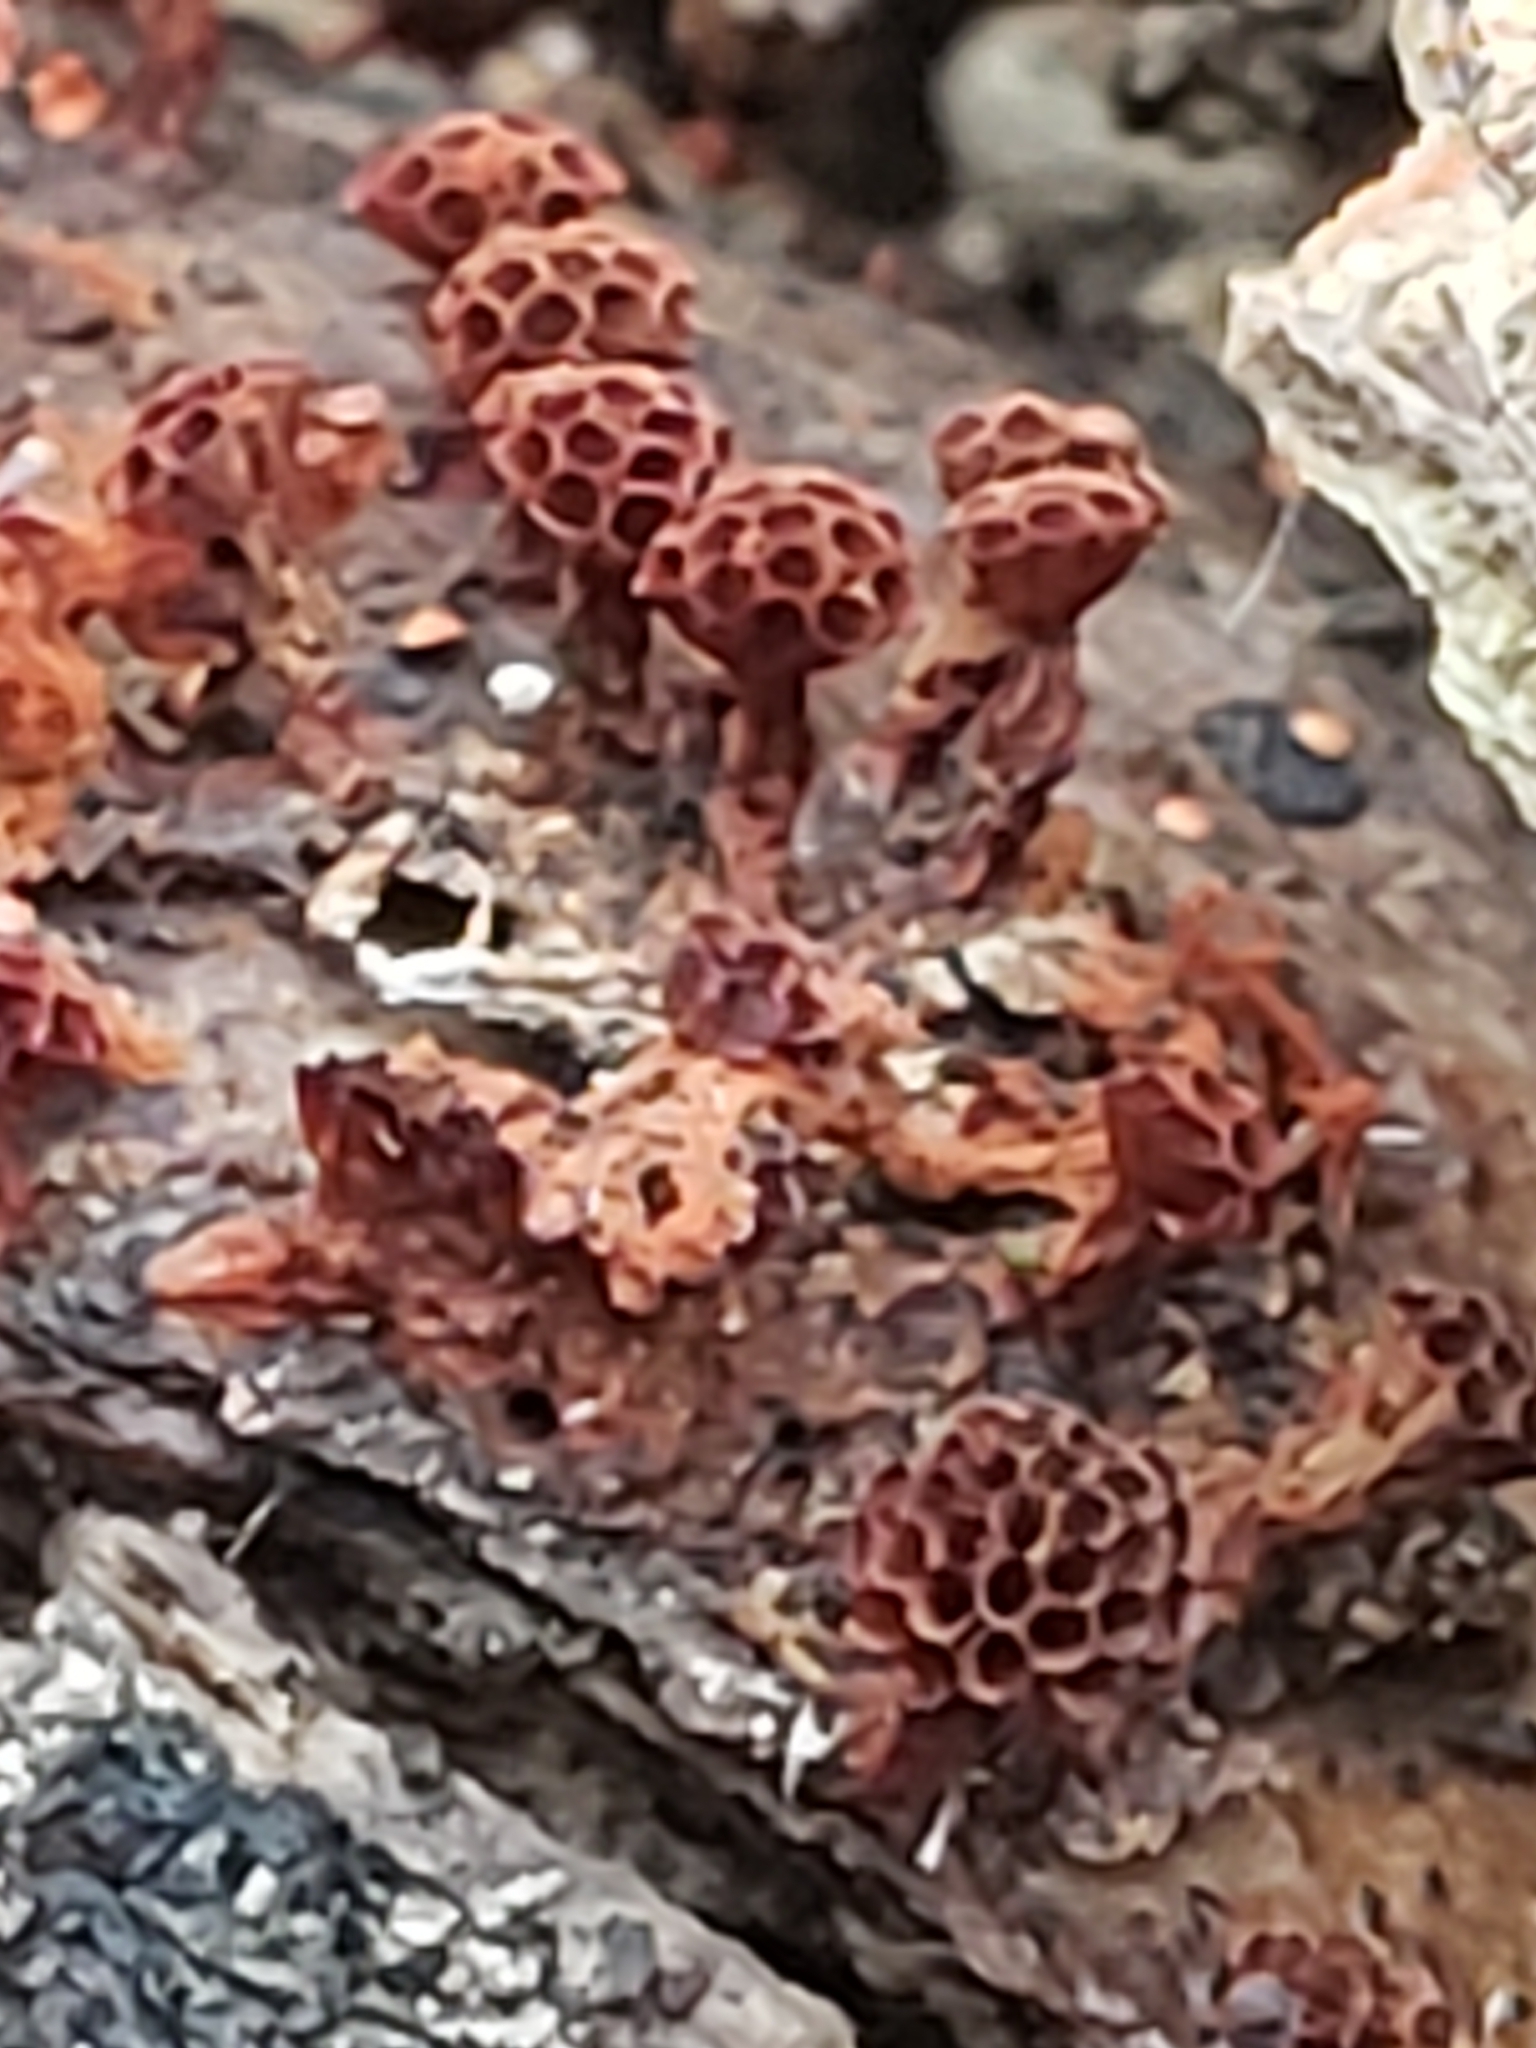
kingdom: Protozoa
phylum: Mycetozoa
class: Myxomycetes
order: Trichiales
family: Trichiaceae
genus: Metatrichia
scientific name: Metatrichia vesparia
